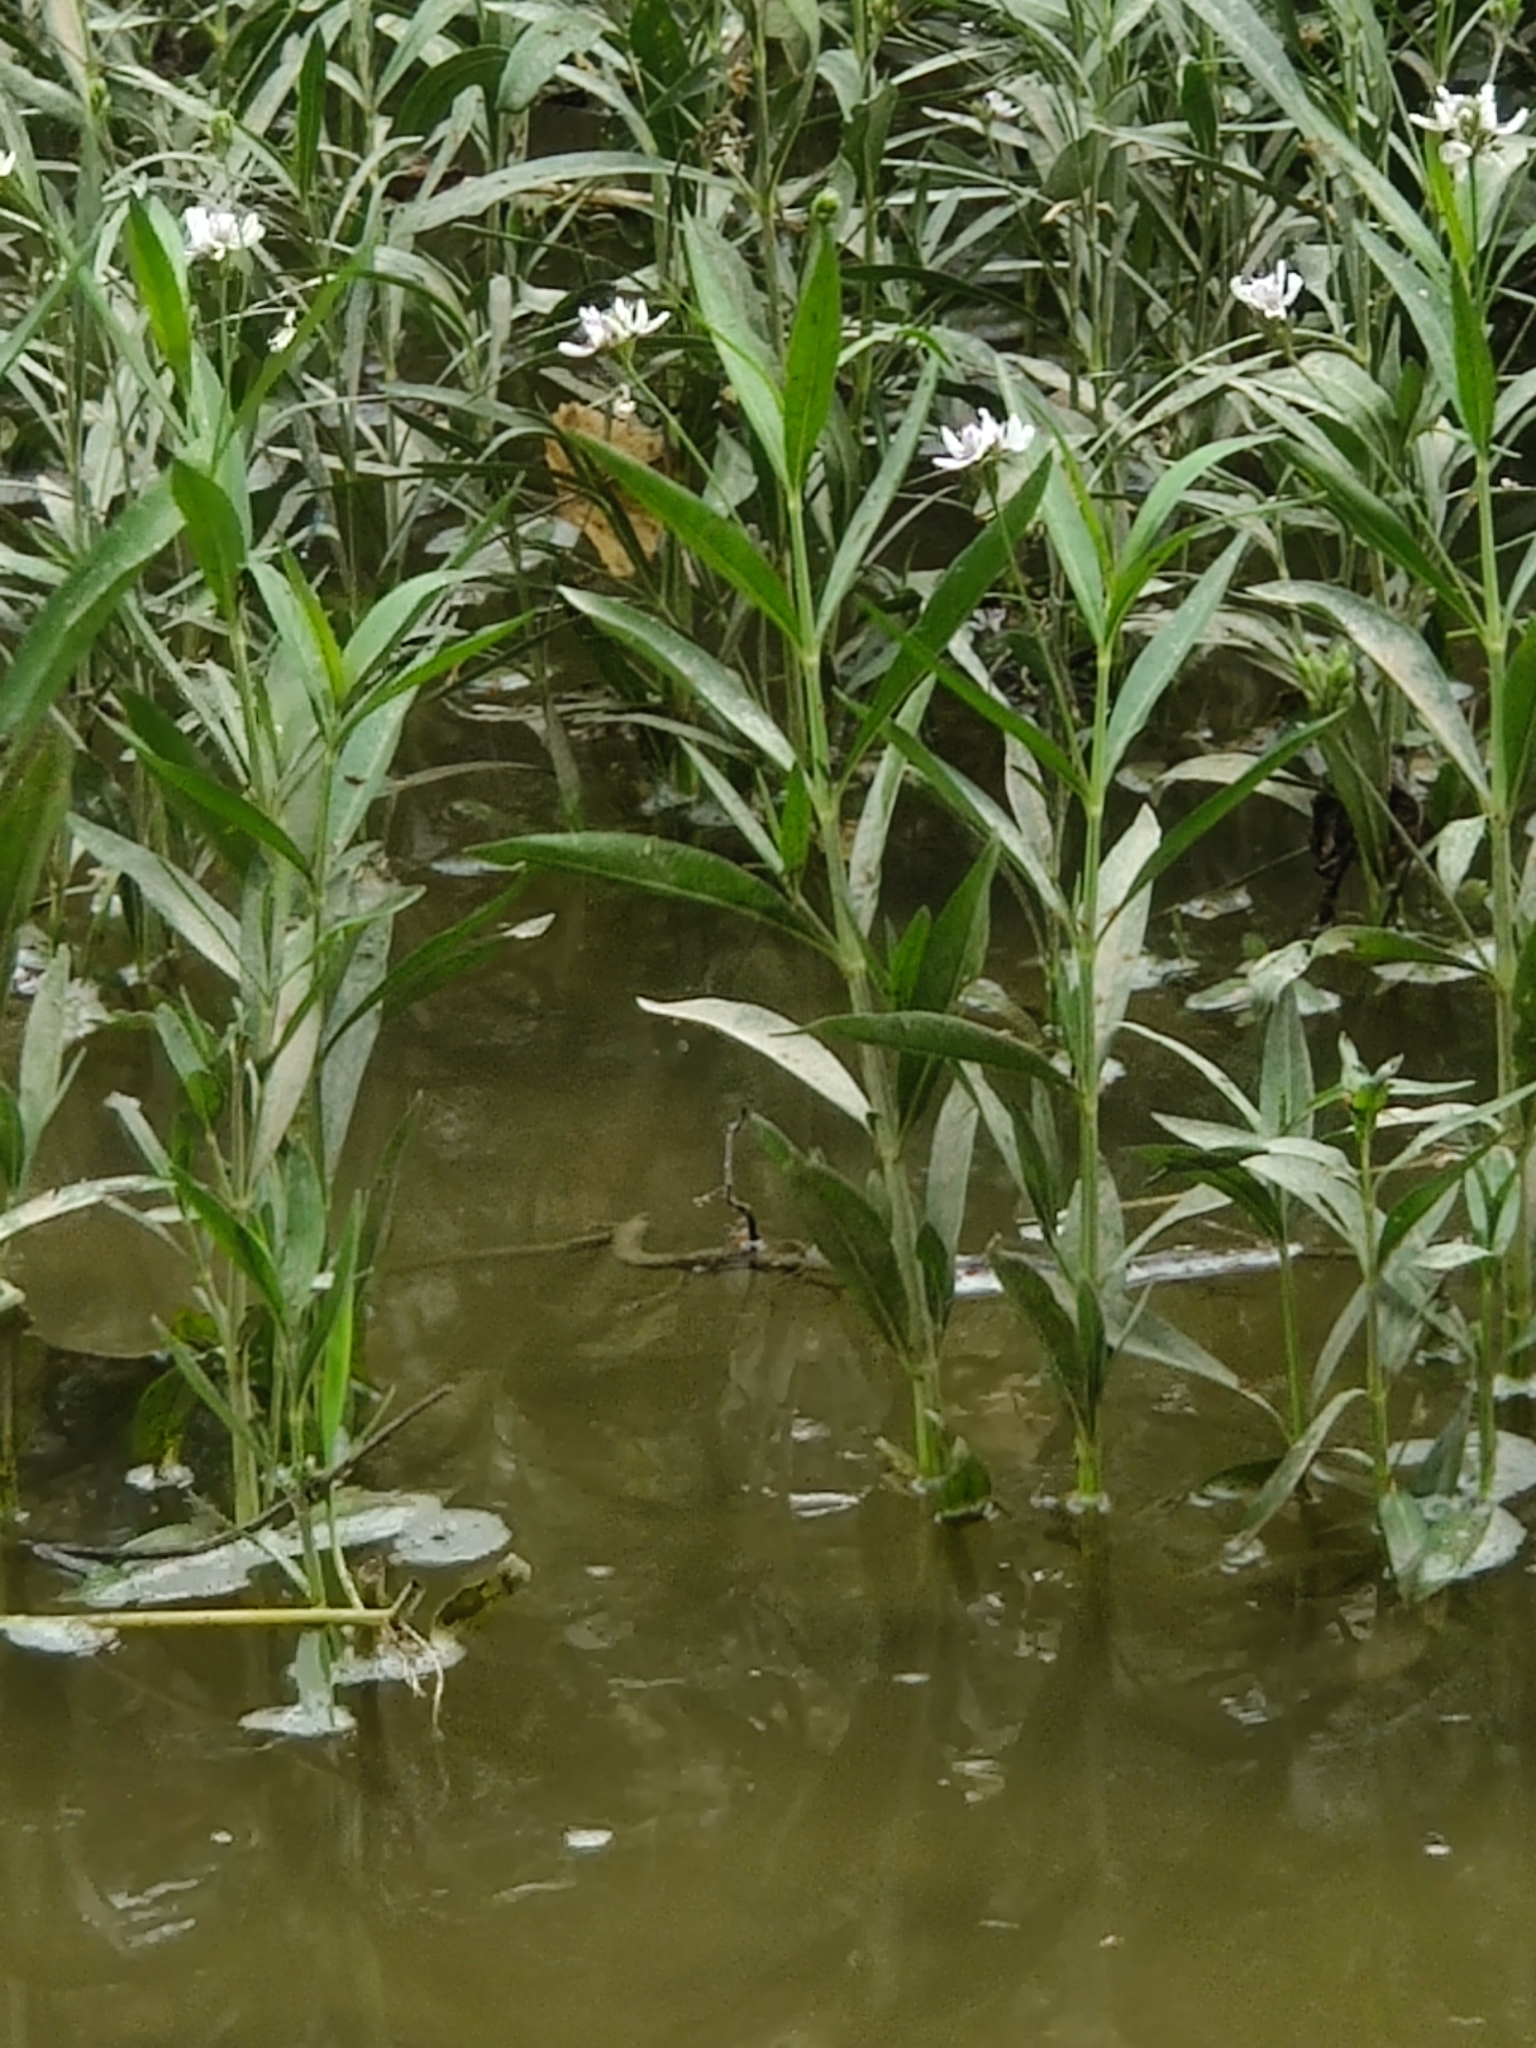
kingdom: Plantae
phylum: Tracheophyta
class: Magnoliopsida
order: Lamiales
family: Acanthaceae
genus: Dianthera
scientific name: Dianthera americana
